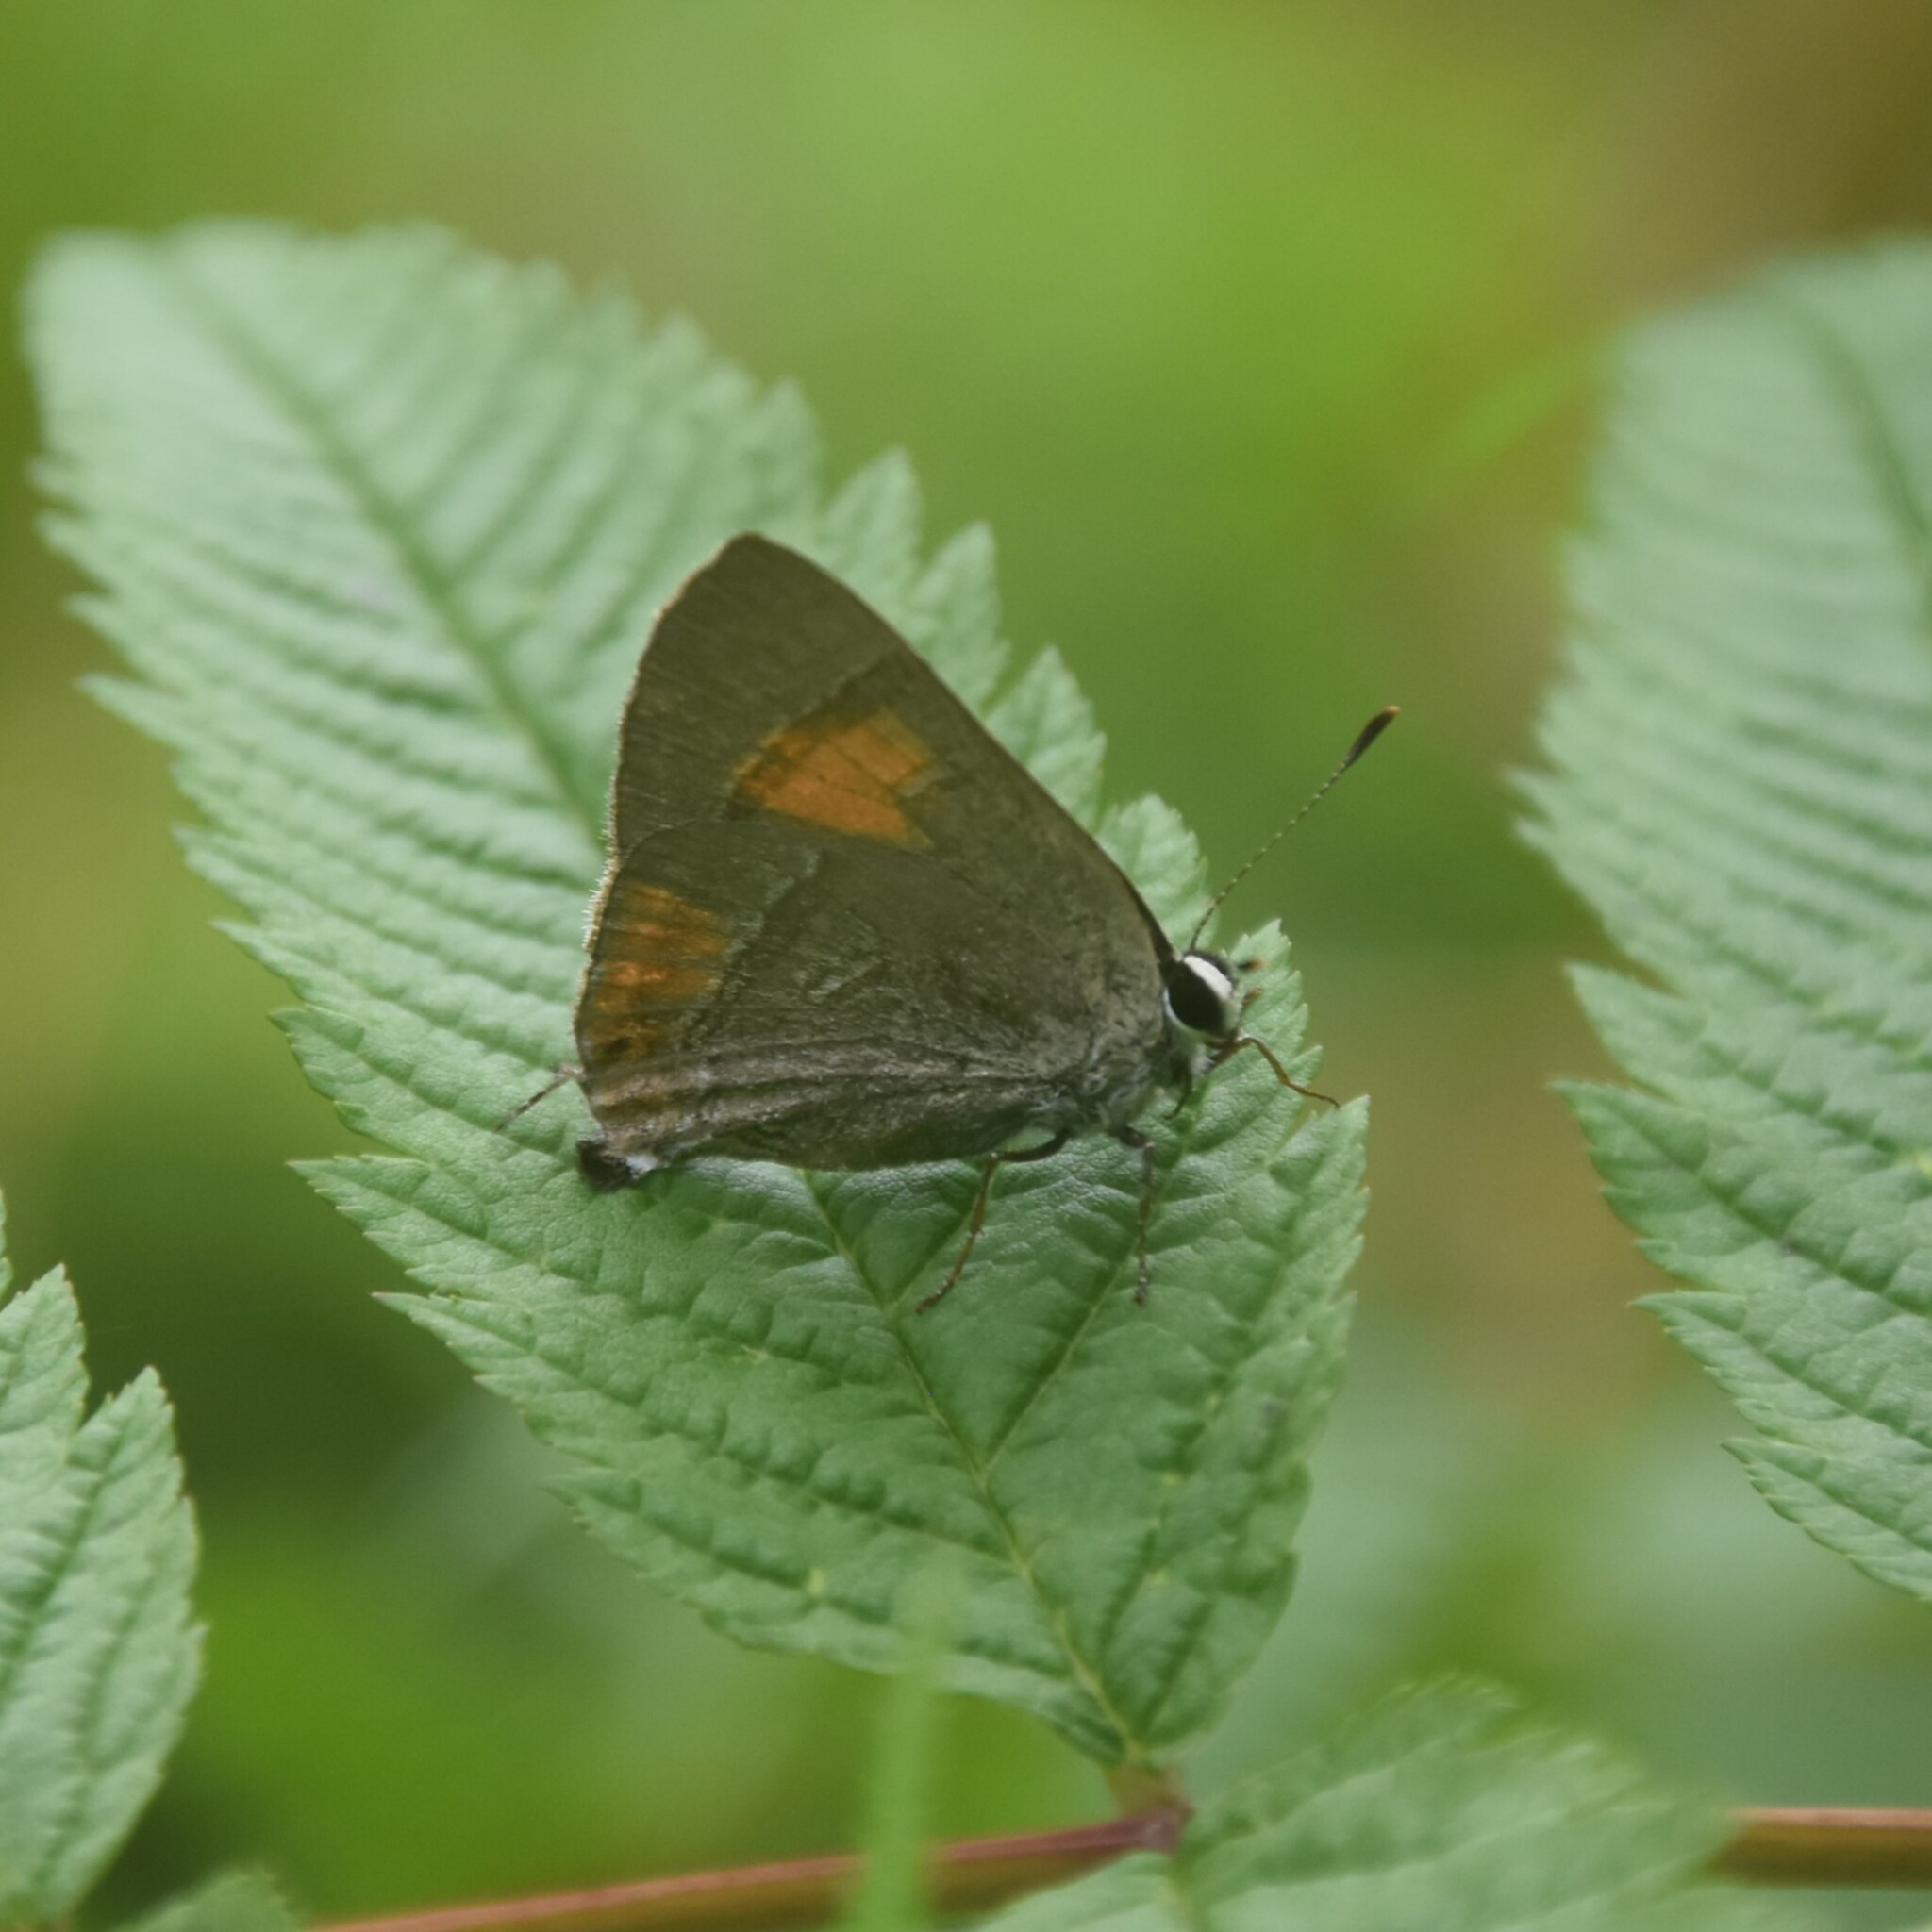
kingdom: Animalia
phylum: Arthropoda
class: Insecta
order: Lepidoptera
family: Lycaenidae
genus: Rapala
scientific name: Rapala selira
